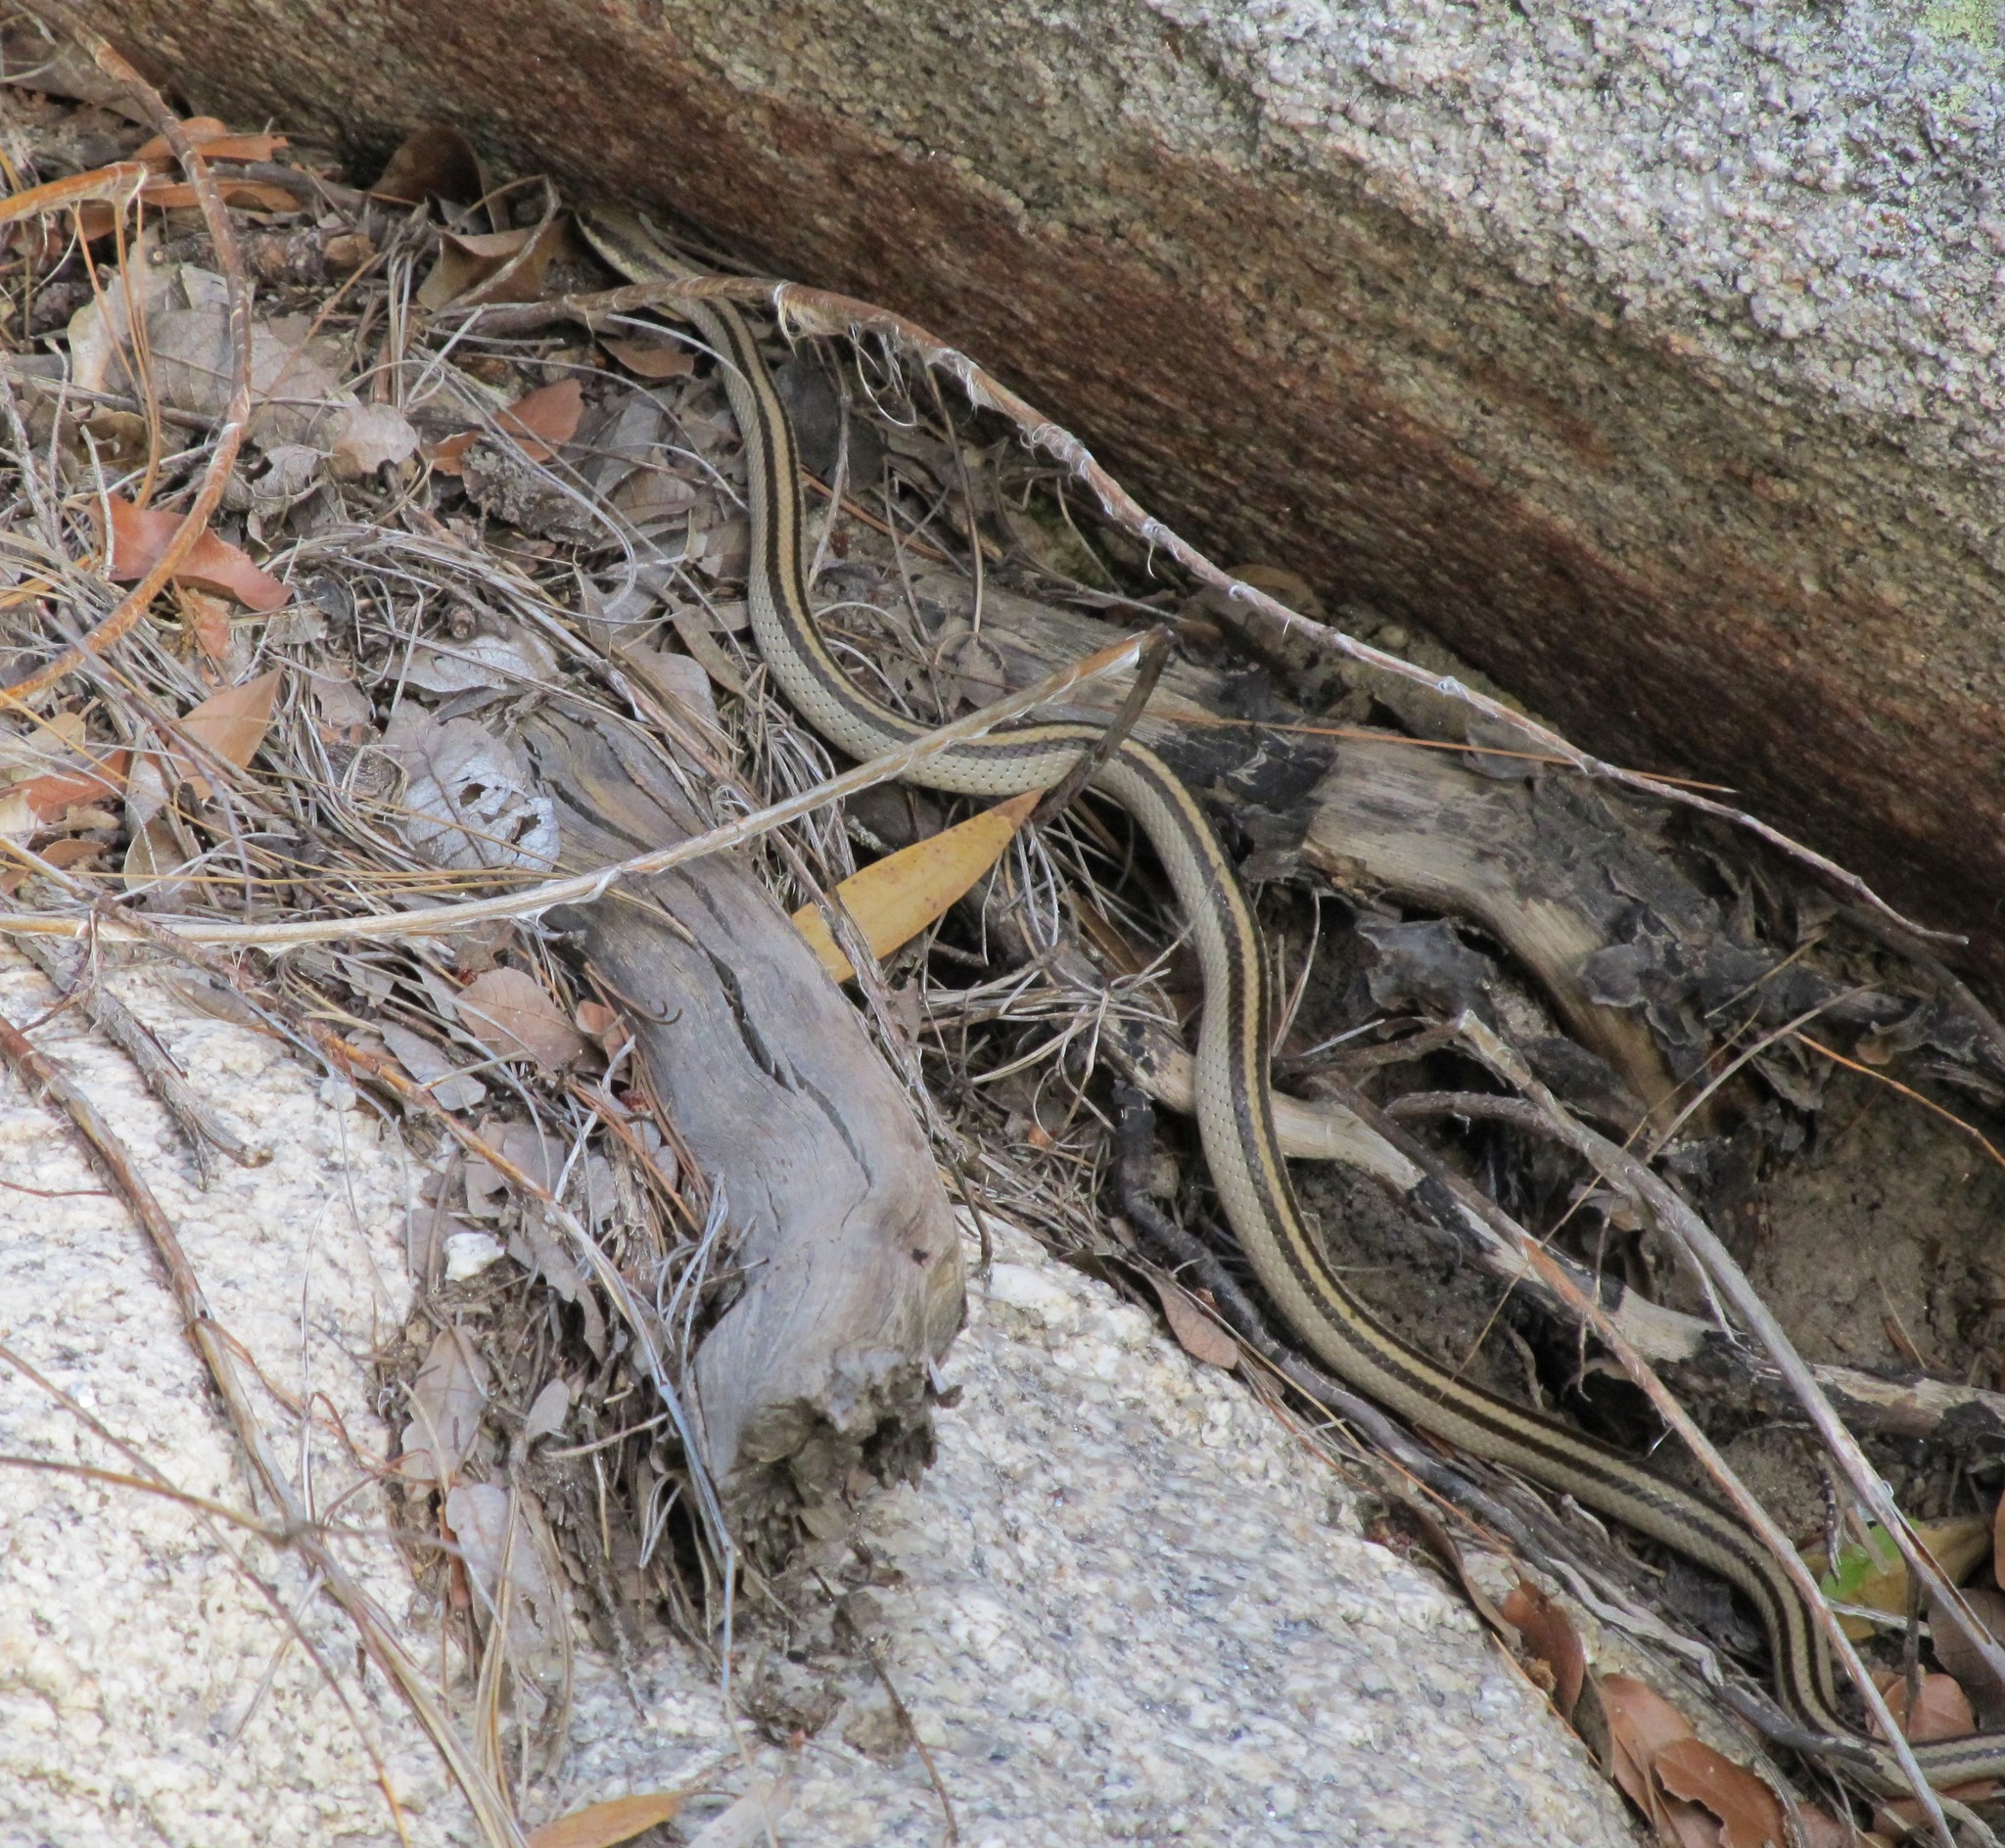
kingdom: Animalia
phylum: Chordata
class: Squamata
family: Colubridae
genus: Salvadora
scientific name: Salvadora grahamiae
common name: Mountain patchnose snake
